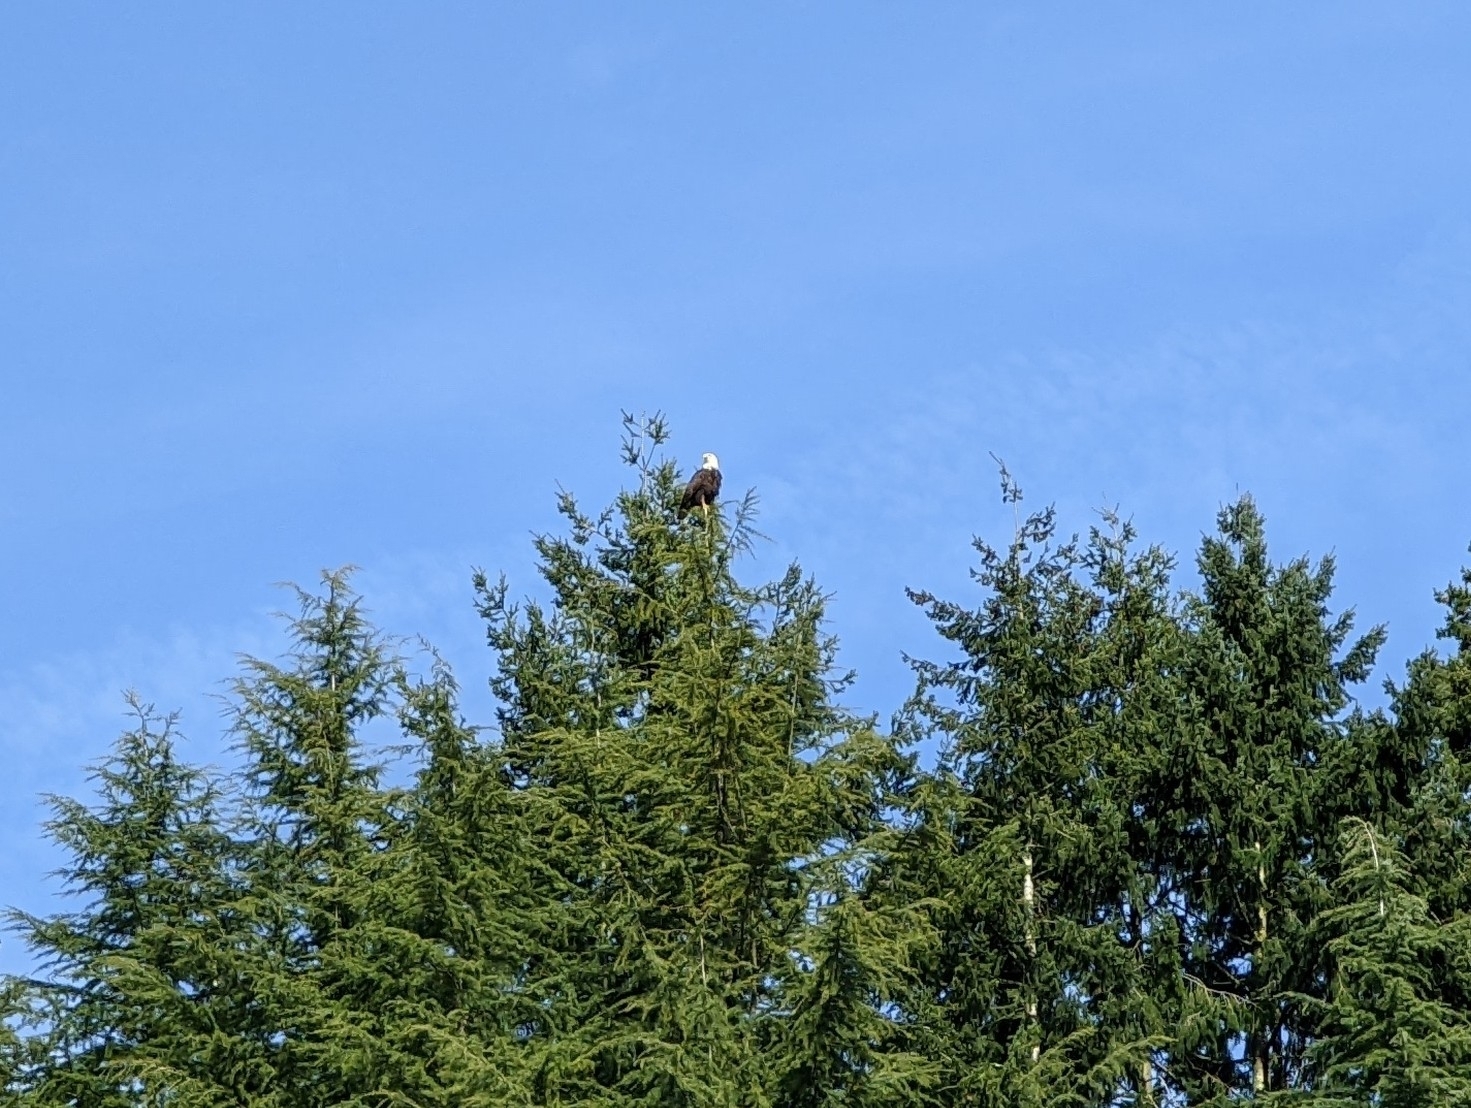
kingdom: Animalia
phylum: Chordata
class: Aves
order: Accipitriformes
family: Accipitridae
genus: Haliaeetus
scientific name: Haliaeetus leucocephalus
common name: Bald eagle
